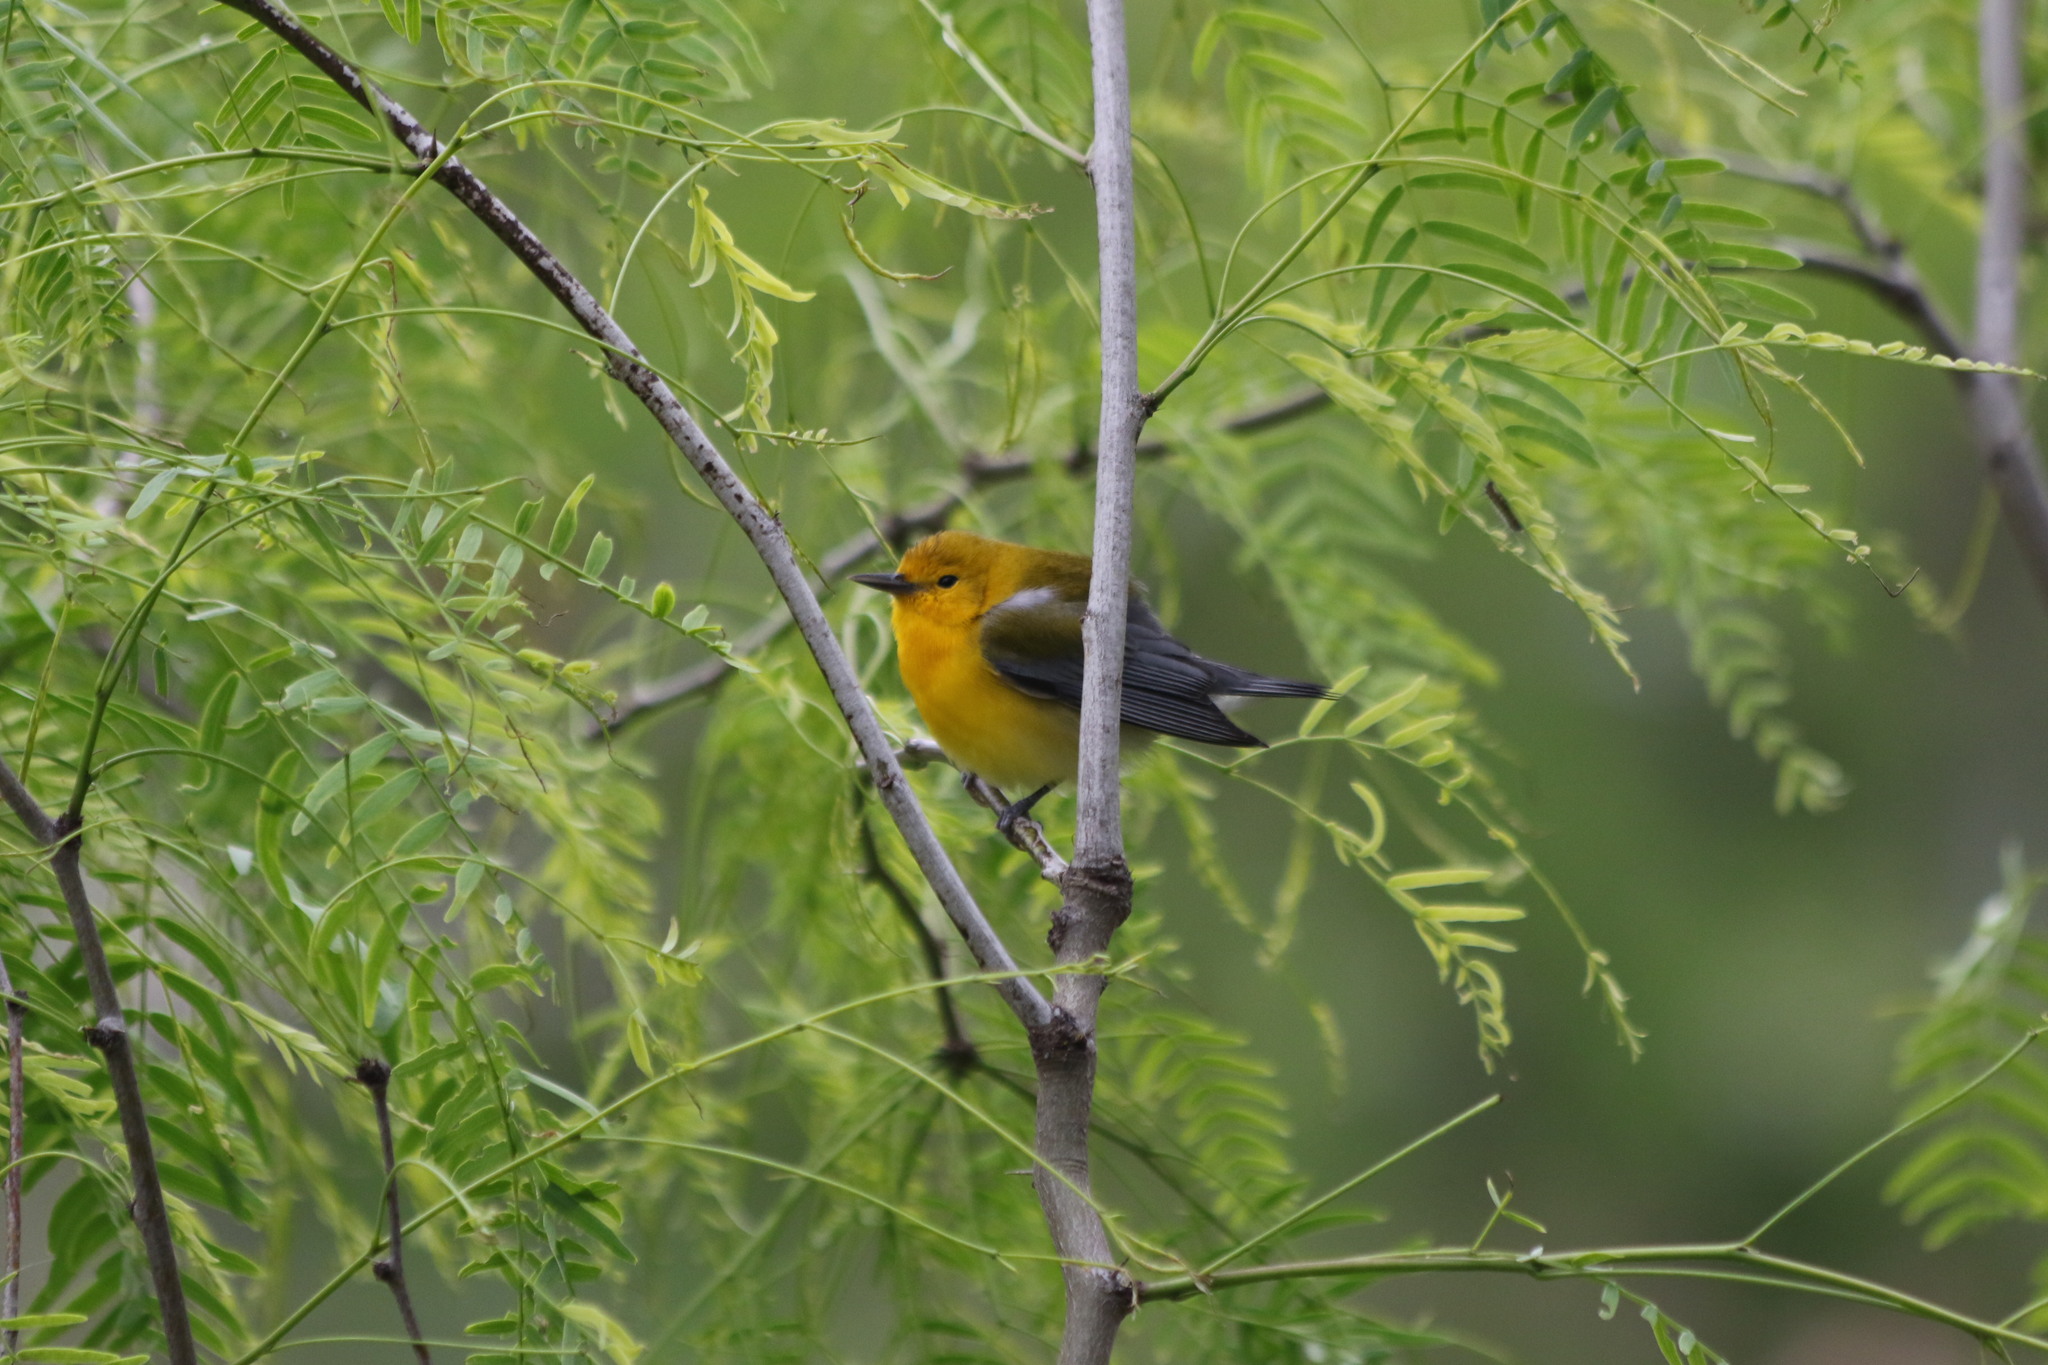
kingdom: Animalia
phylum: Chordata
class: Aves
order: Passeriformes
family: Parulidae
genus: Protonotaria
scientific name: Protonotaria citrea
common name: Prothonotary warbler
